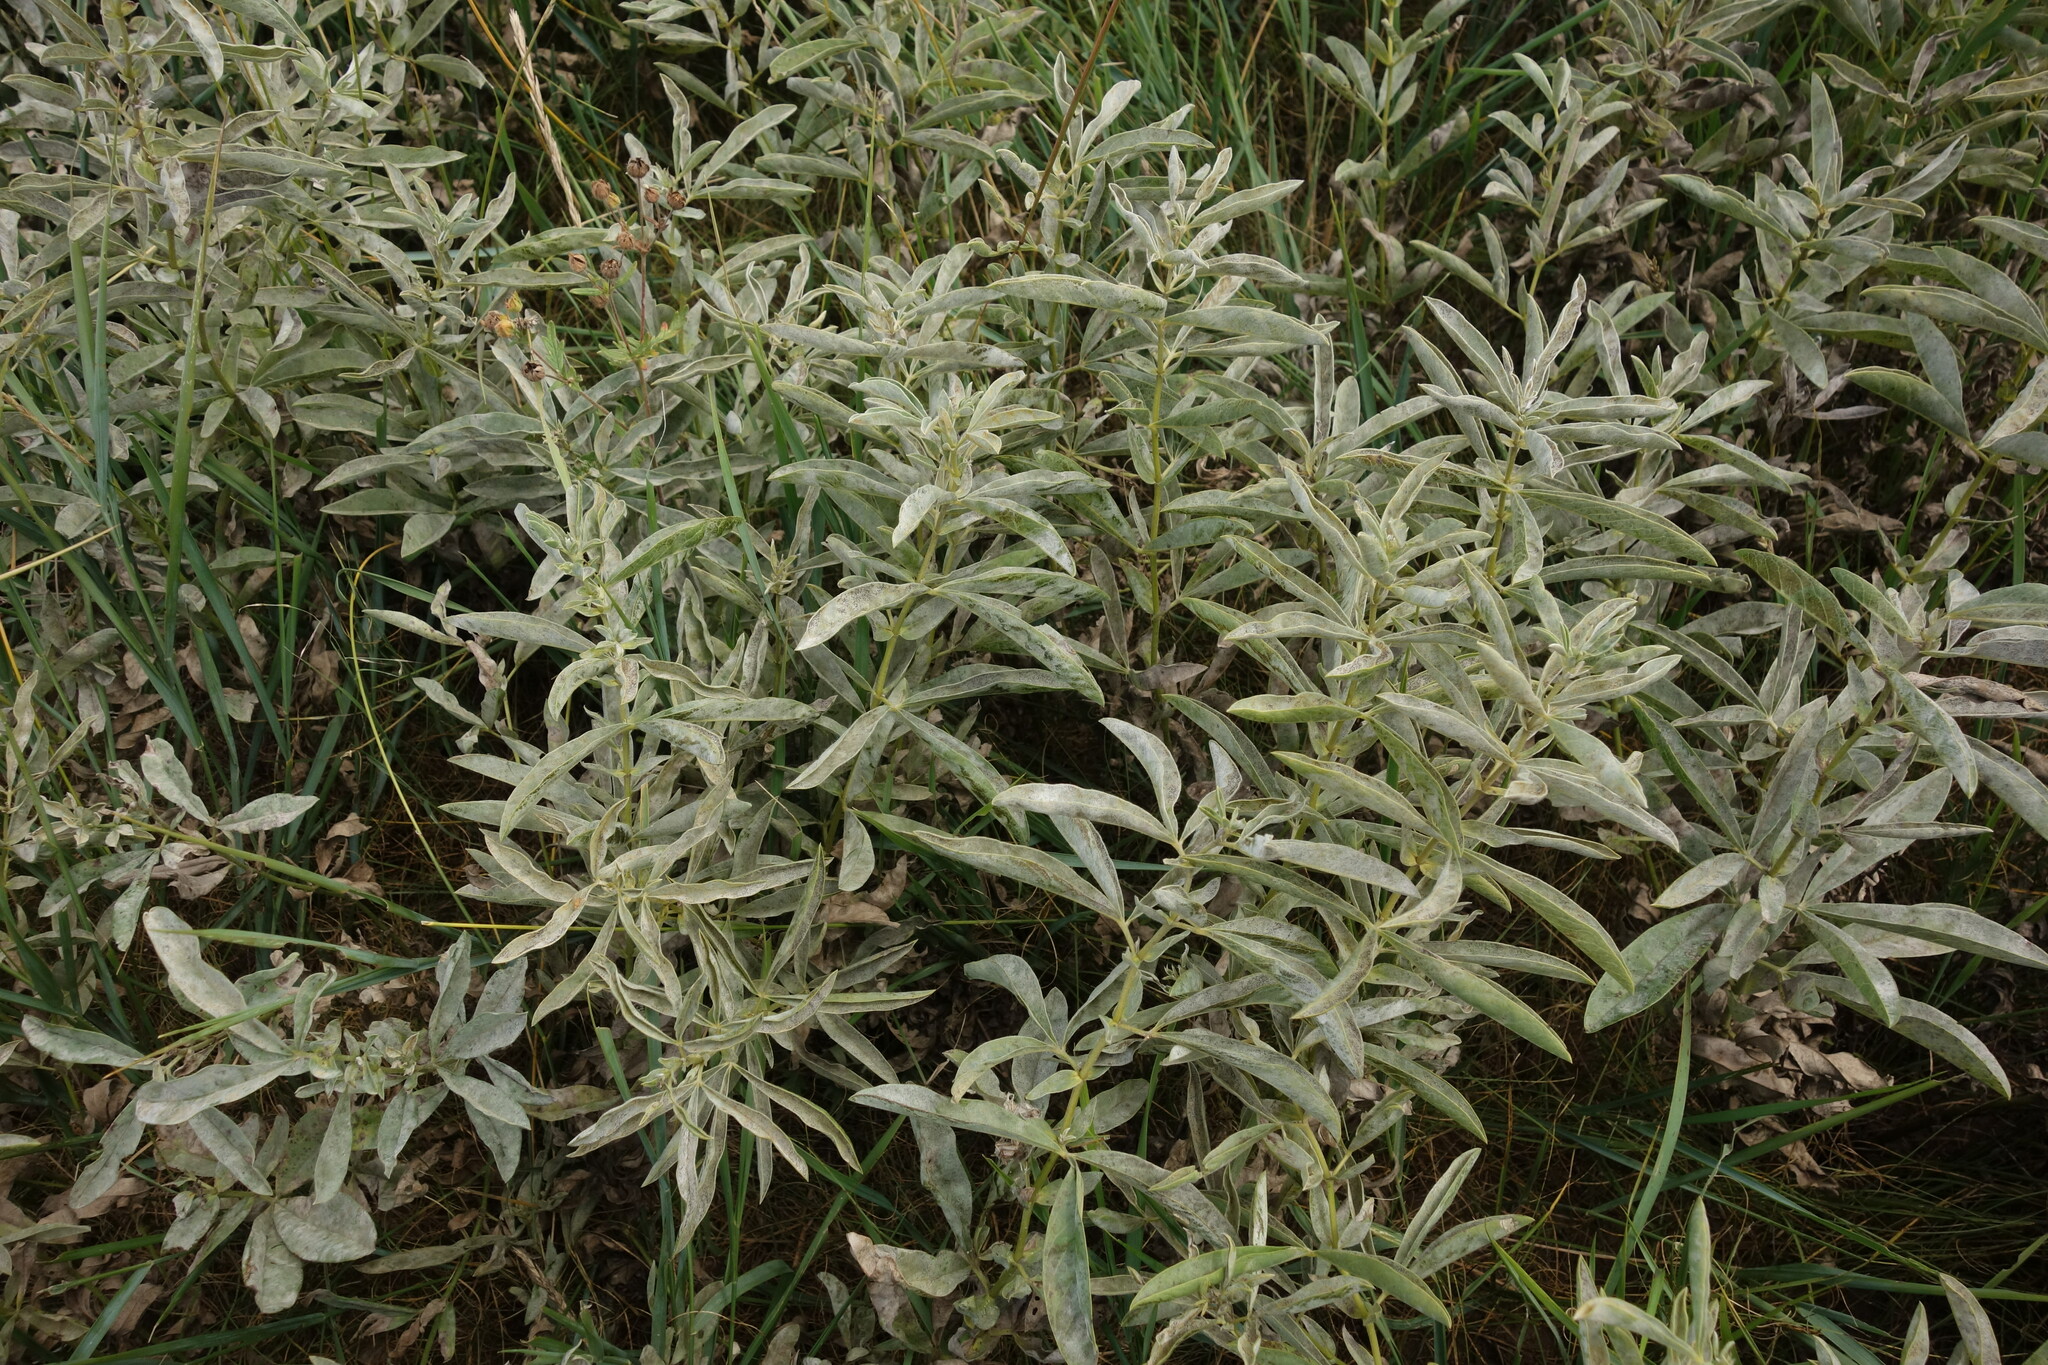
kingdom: Plantae
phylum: Tracheophyta
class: Magnoliopsida
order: Fabales
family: Fabaceae
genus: Thermopsis
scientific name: Thermopsis lanceolata
